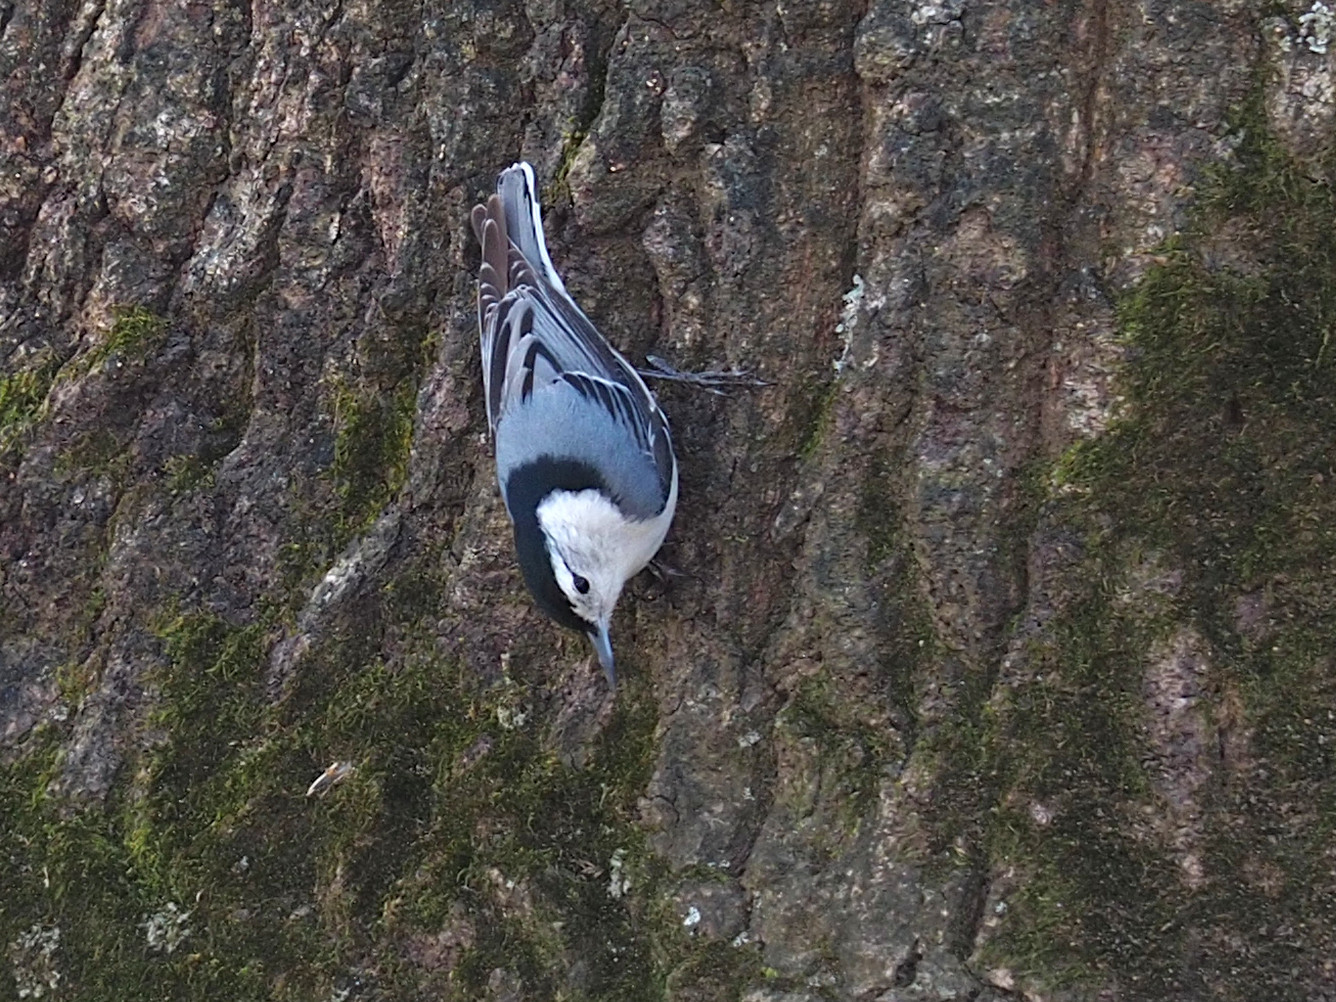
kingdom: Animalia
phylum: Chordata
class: Aves
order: Passeriformes
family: Sittidae
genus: Sitta
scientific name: Sitta carolinensis
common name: White-breasted nuthatch
